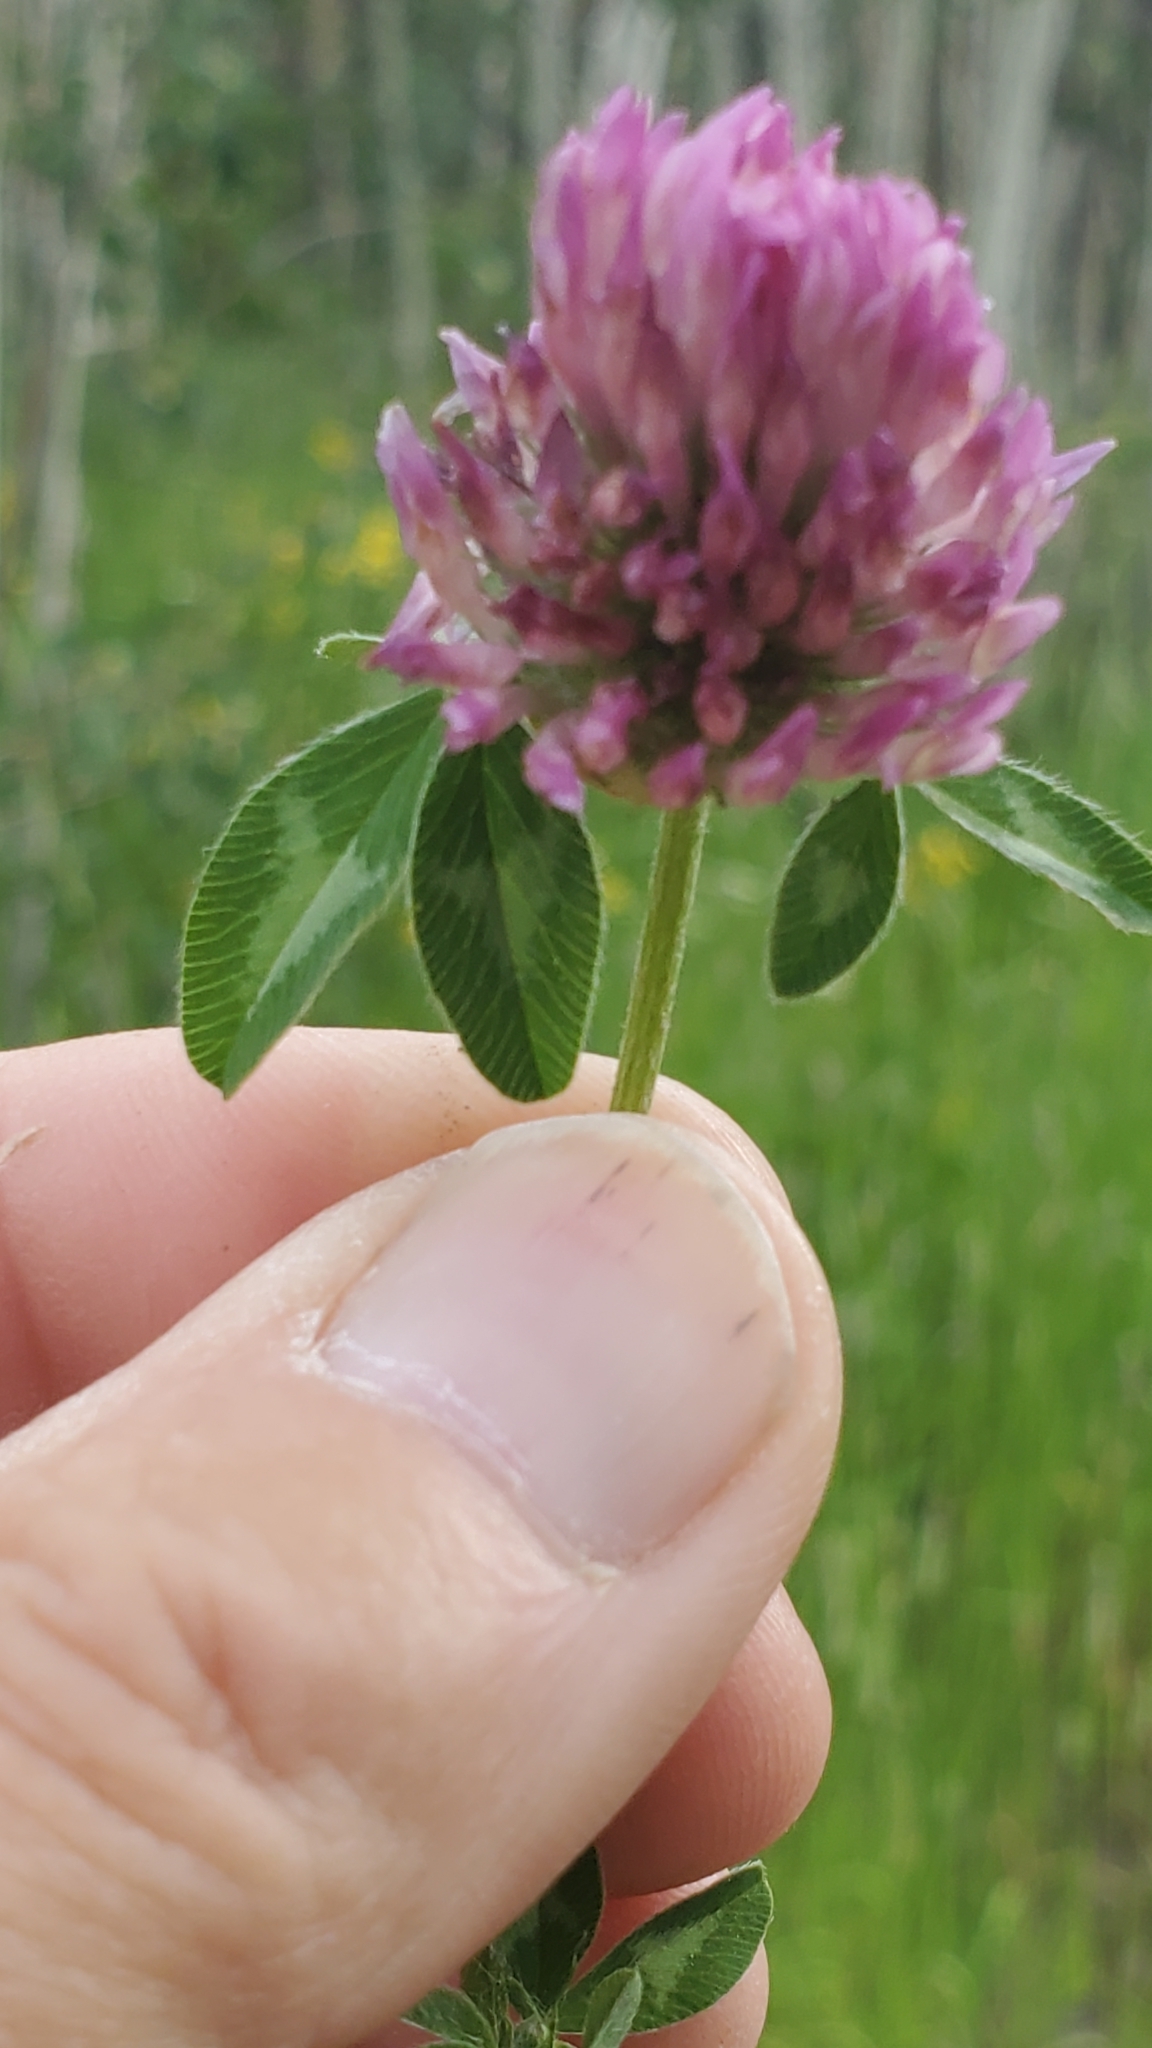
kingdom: Plantae
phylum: Tracheophyta
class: Magnoliopsida
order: Fabales
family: Fabaceae
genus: Trifolium
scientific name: Trifolium pratense
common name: Red clover
